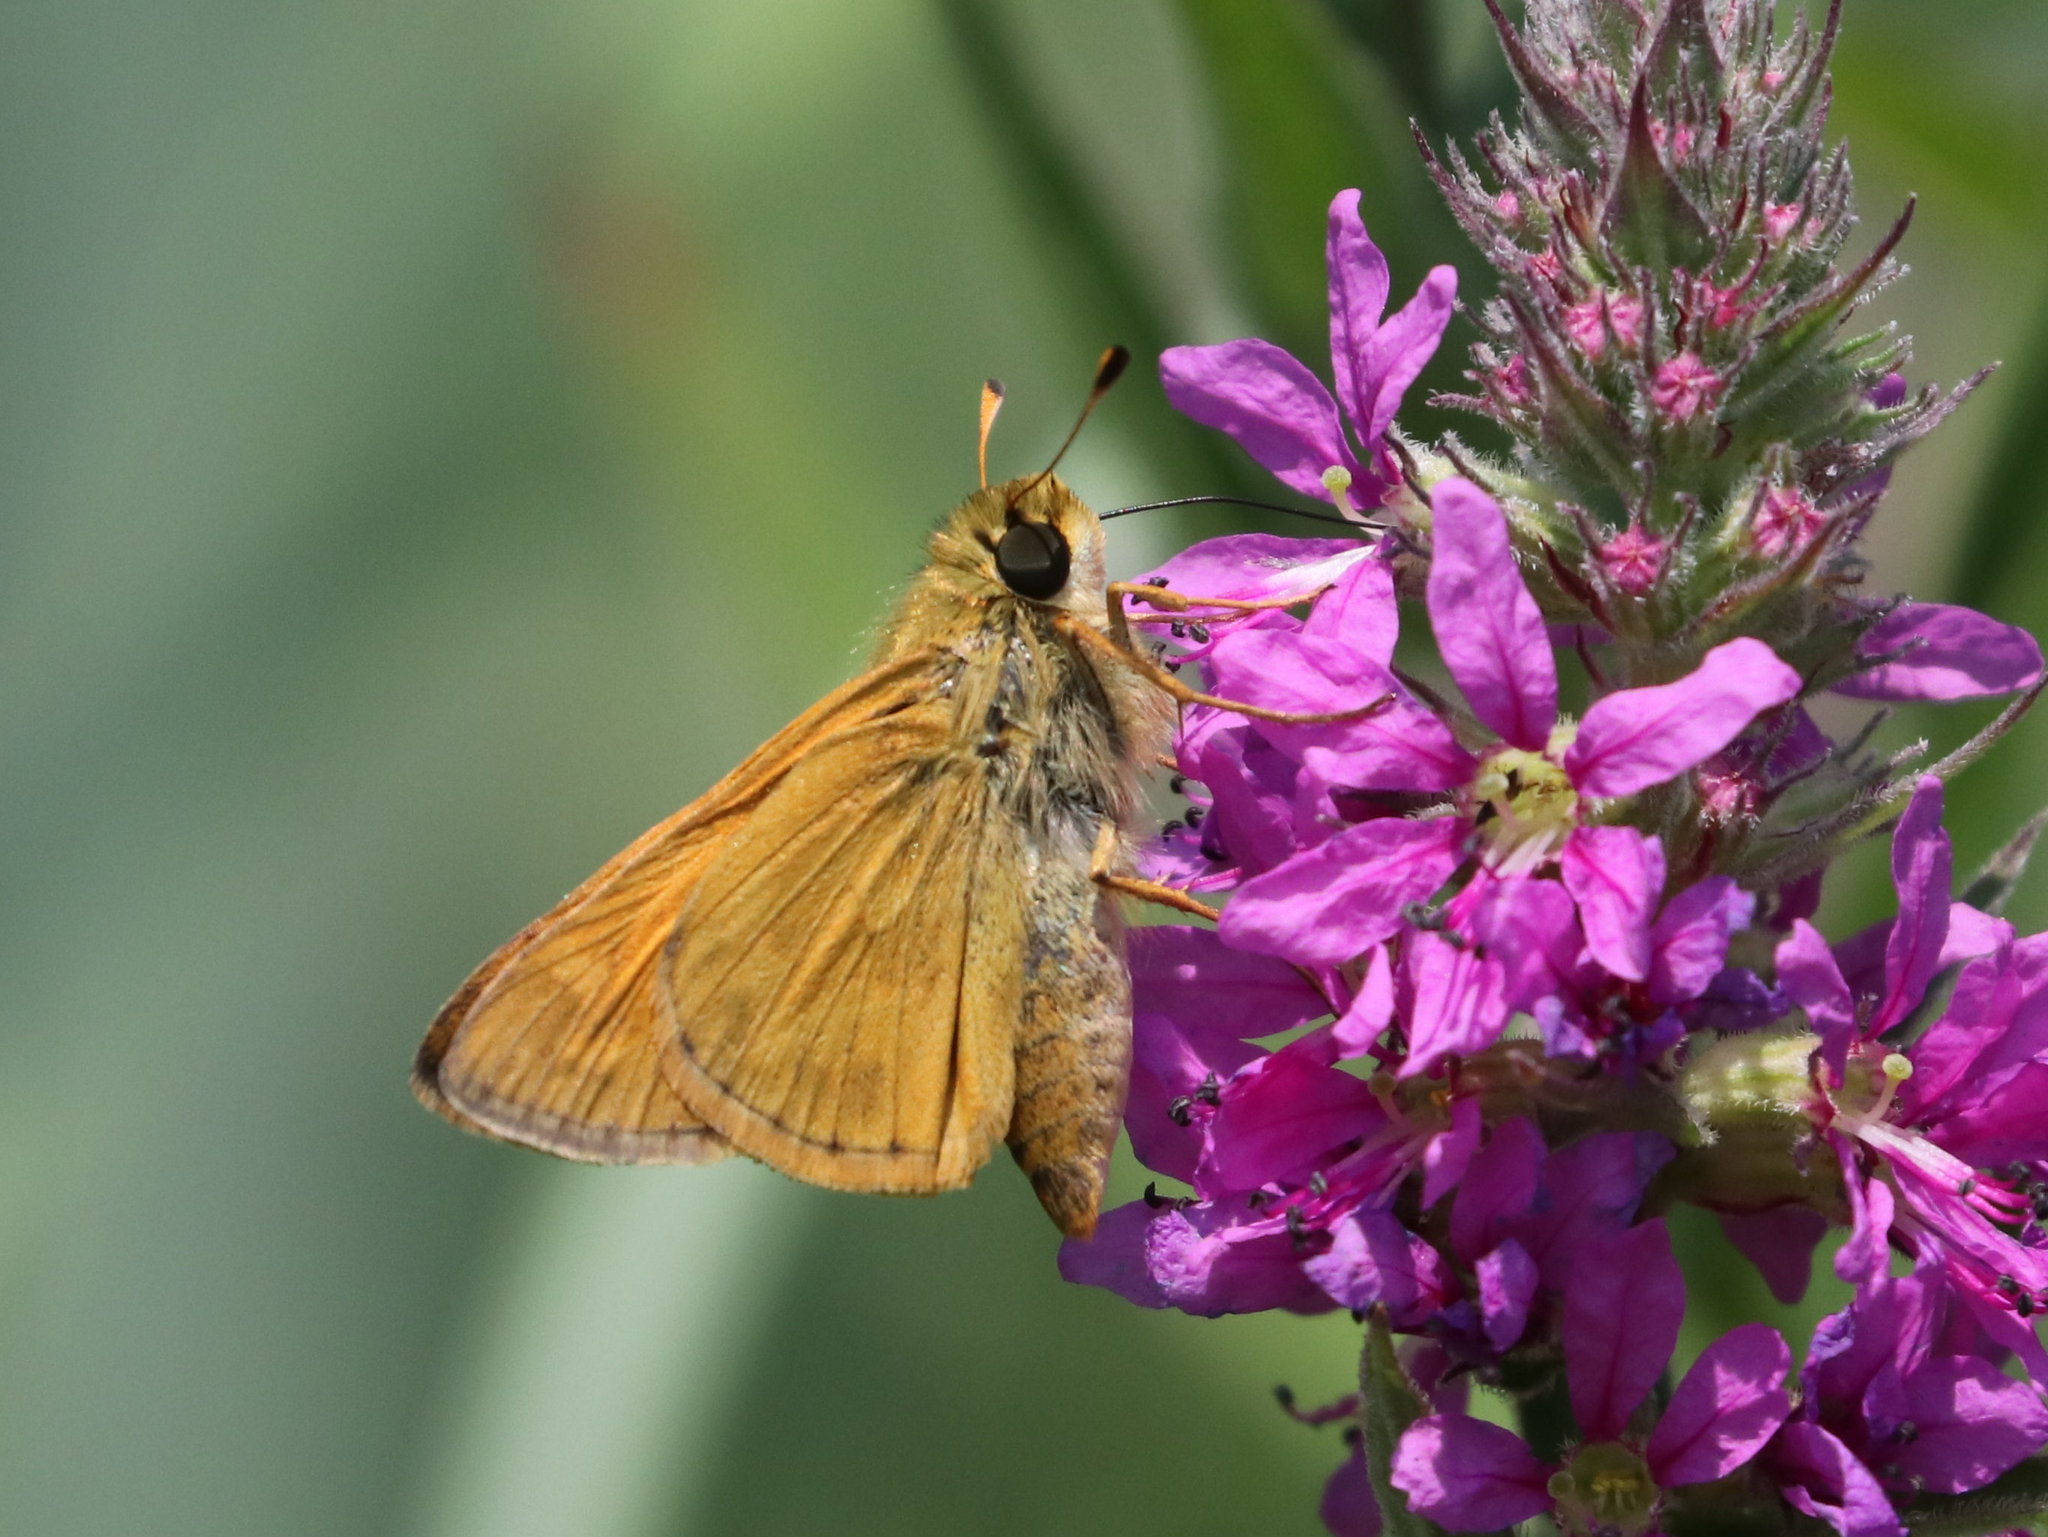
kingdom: Animalia
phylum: Arthropoda
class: Insecta
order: Lepidoptera
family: Hesperiidae
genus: Atalopedes
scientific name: Atalopedes
